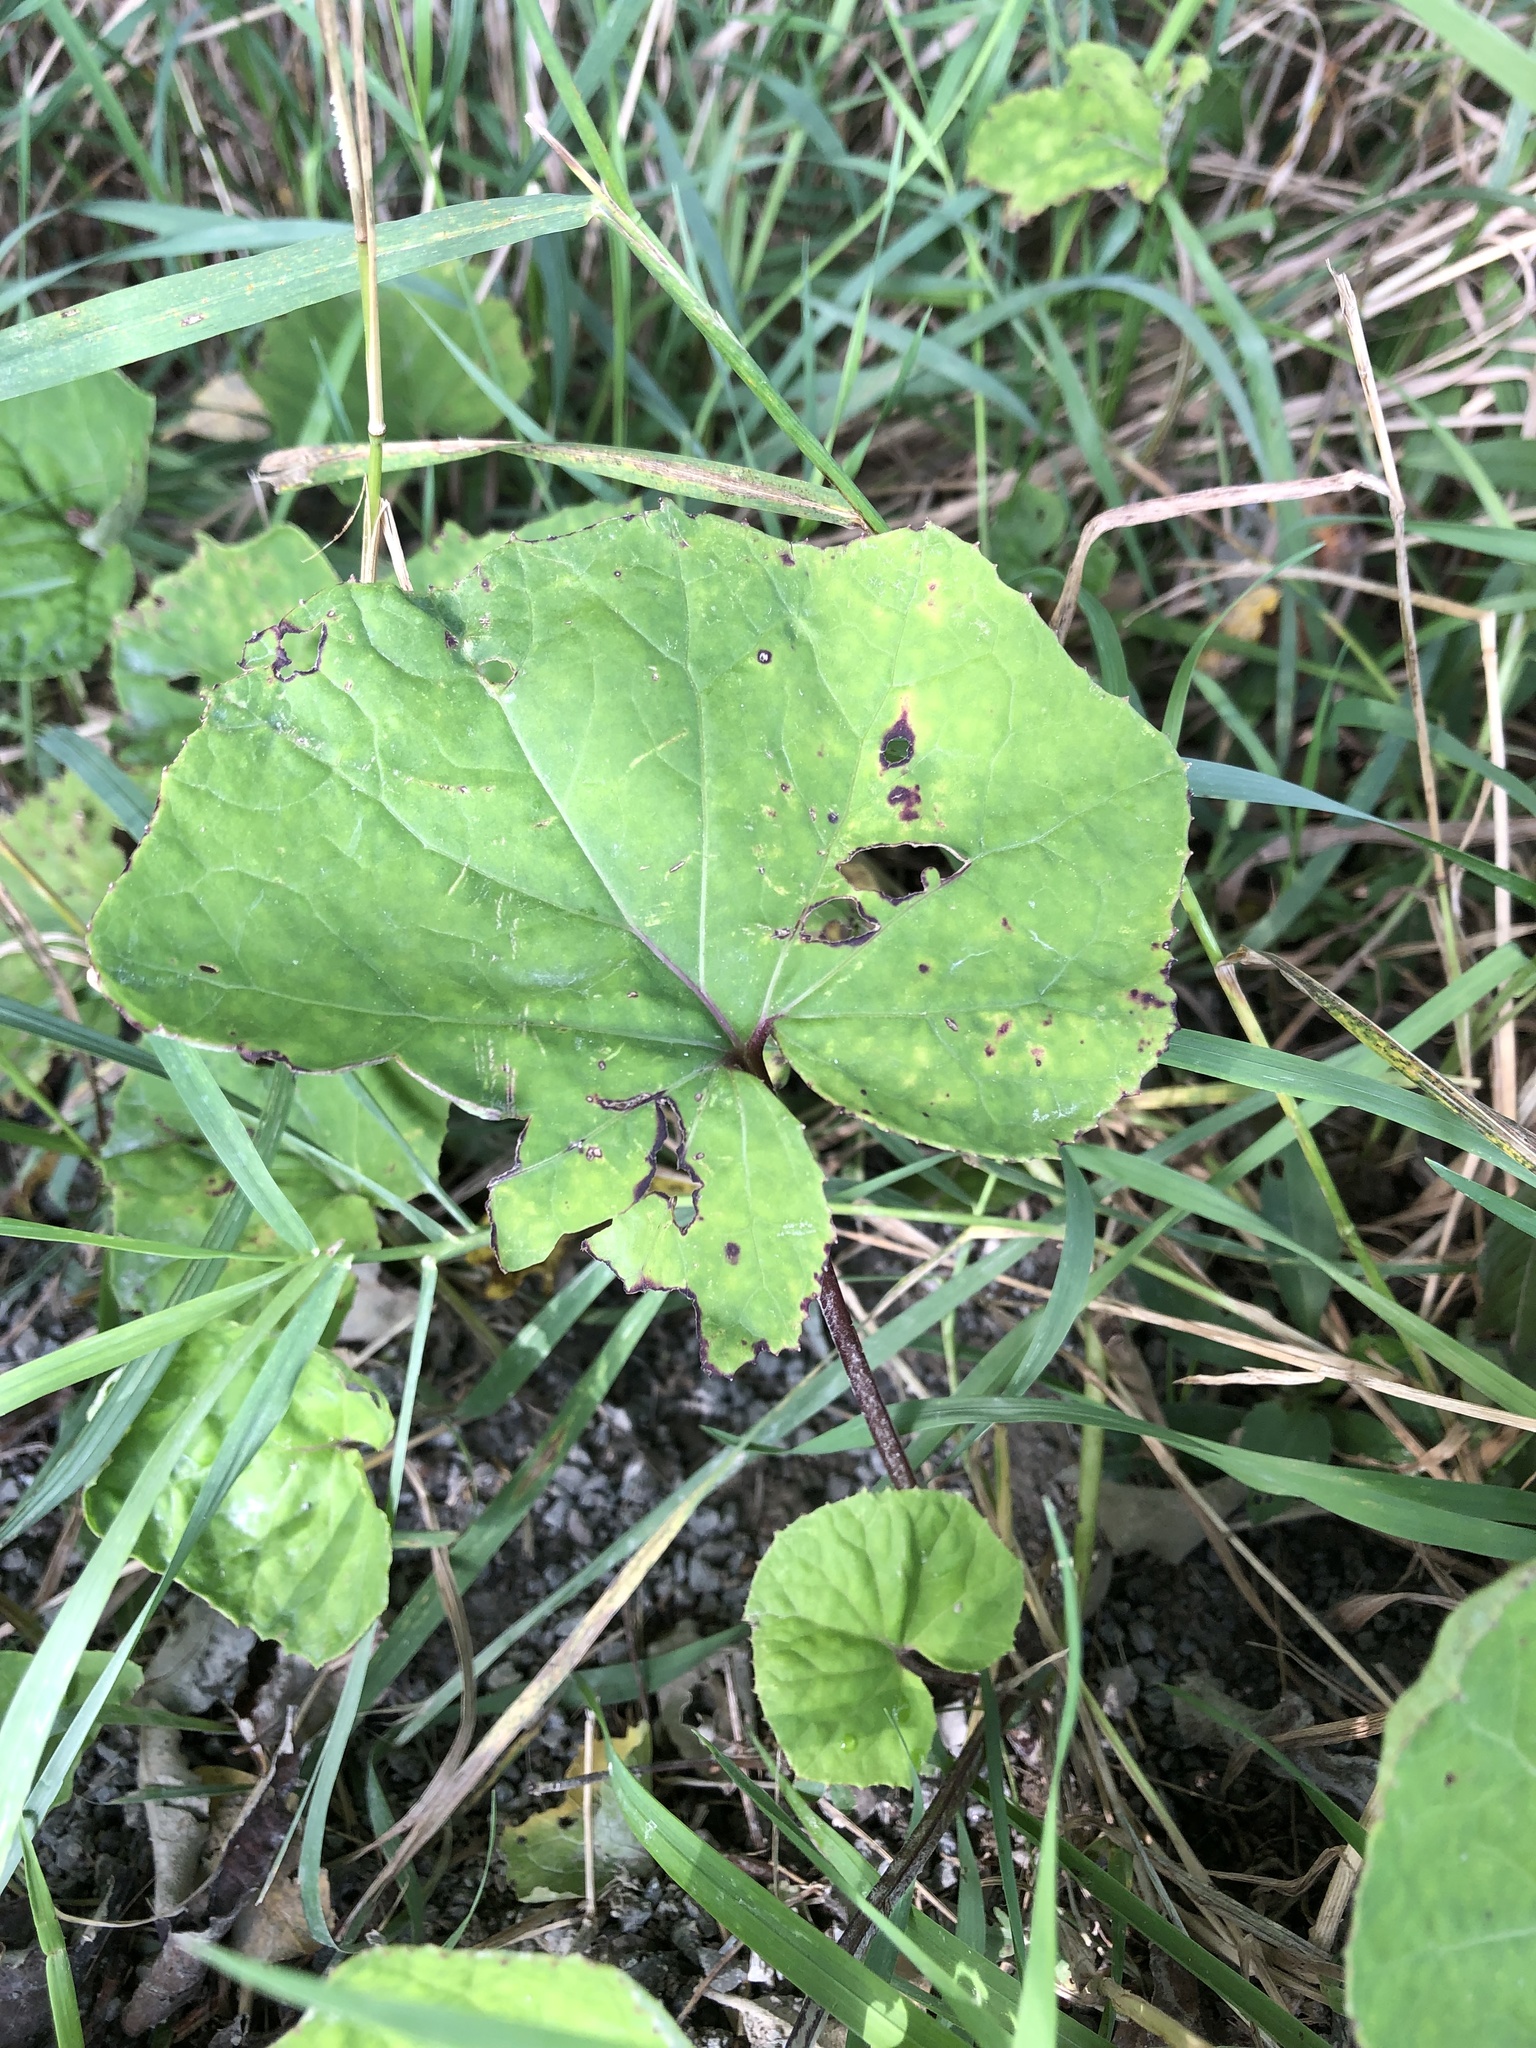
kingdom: Plantae
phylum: Tracheophyta
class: Magnoliopsida
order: Asterales
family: Asteraceae
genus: Tussilago
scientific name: Tussilago farfara
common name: Coltsfoot
